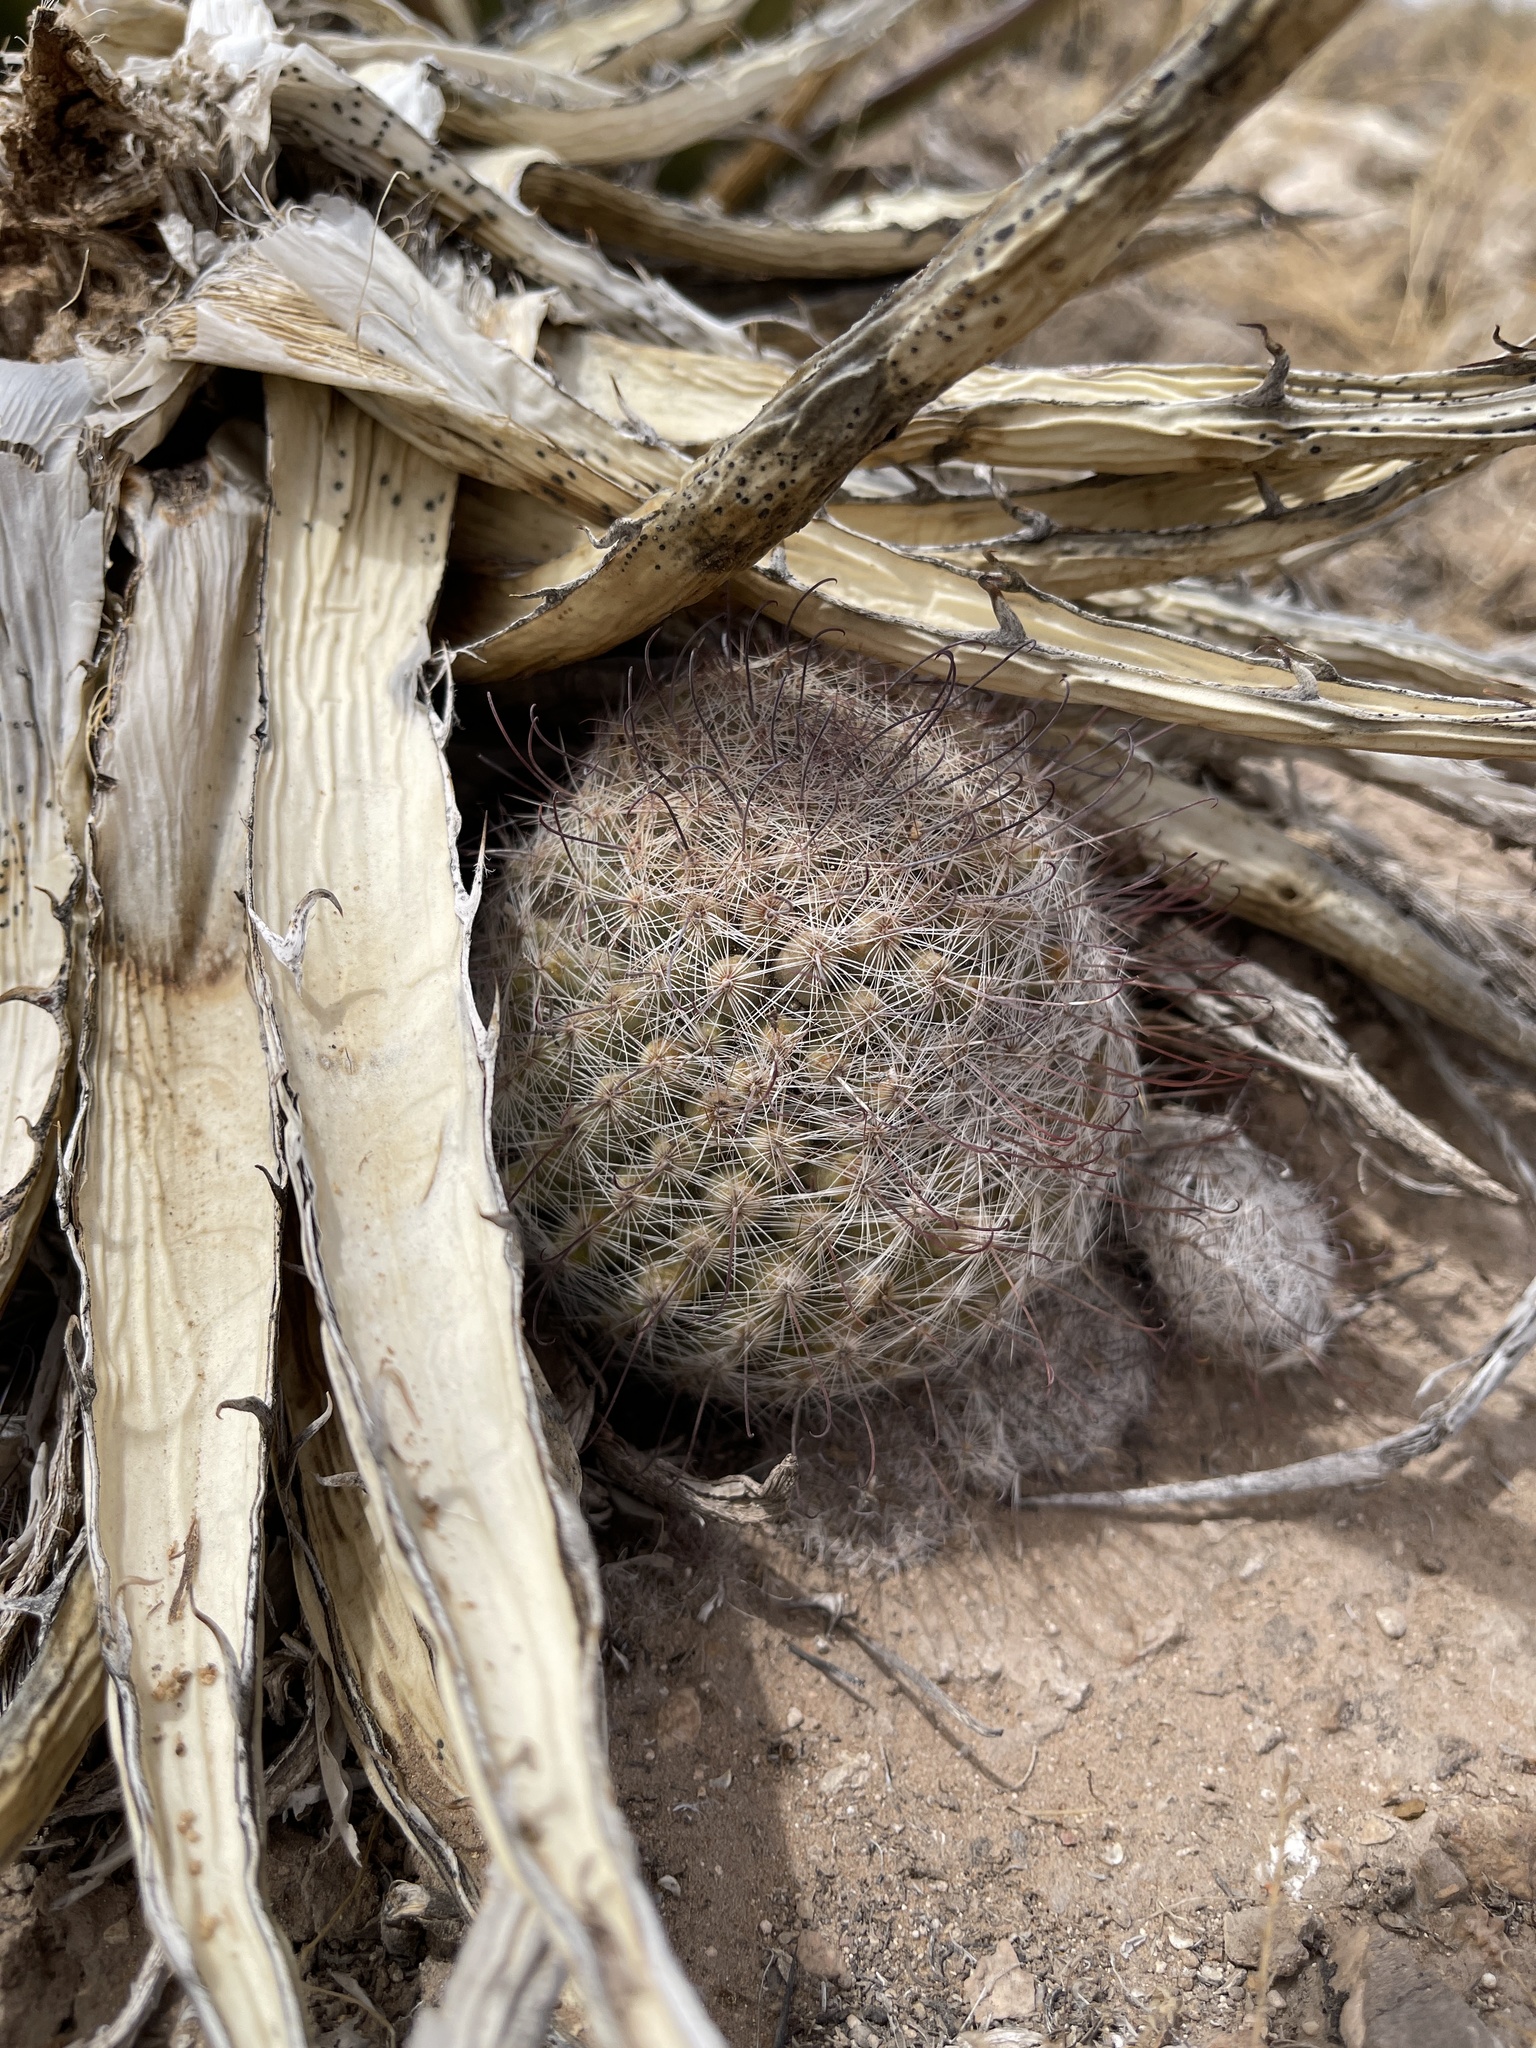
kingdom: Plantae
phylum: Tracheophyta
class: Magnoliopsida
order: Caryophyllales
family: Cactaceae
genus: Cochemiea
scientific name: Cochemiea grahamii
